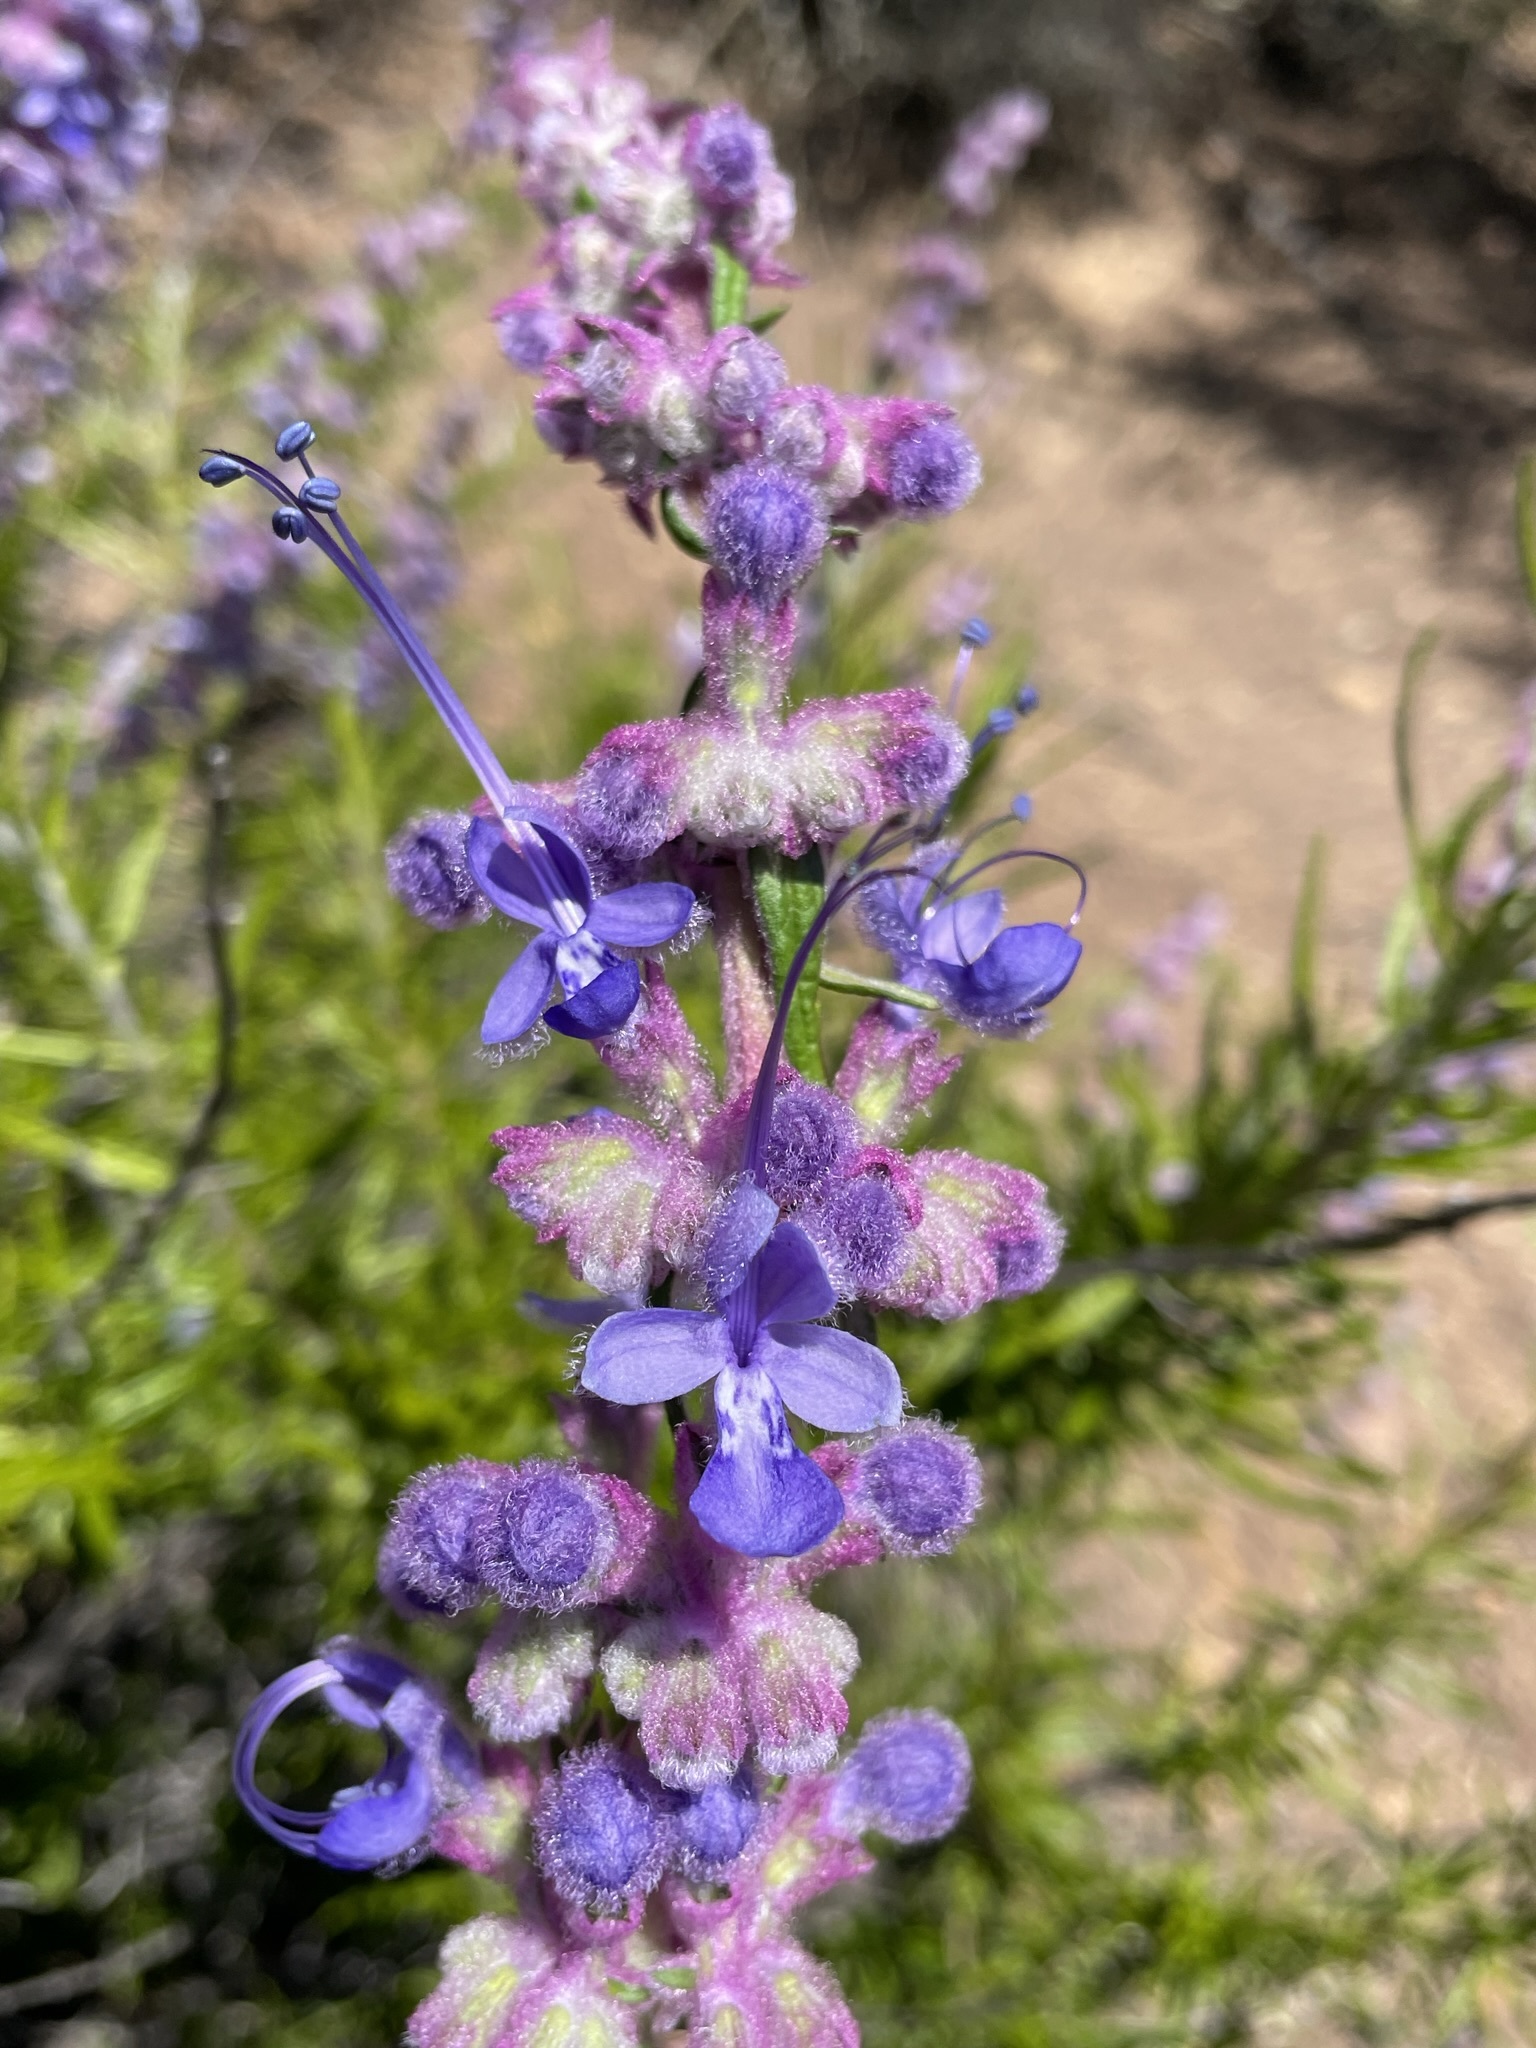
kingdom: Plantae
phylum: Tracheophyta
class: Magnoliopsida
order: Lamiales
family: Lamiaceae
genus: Trichostema
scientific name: Trichostema lanatum
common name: Woolly bluecurls
